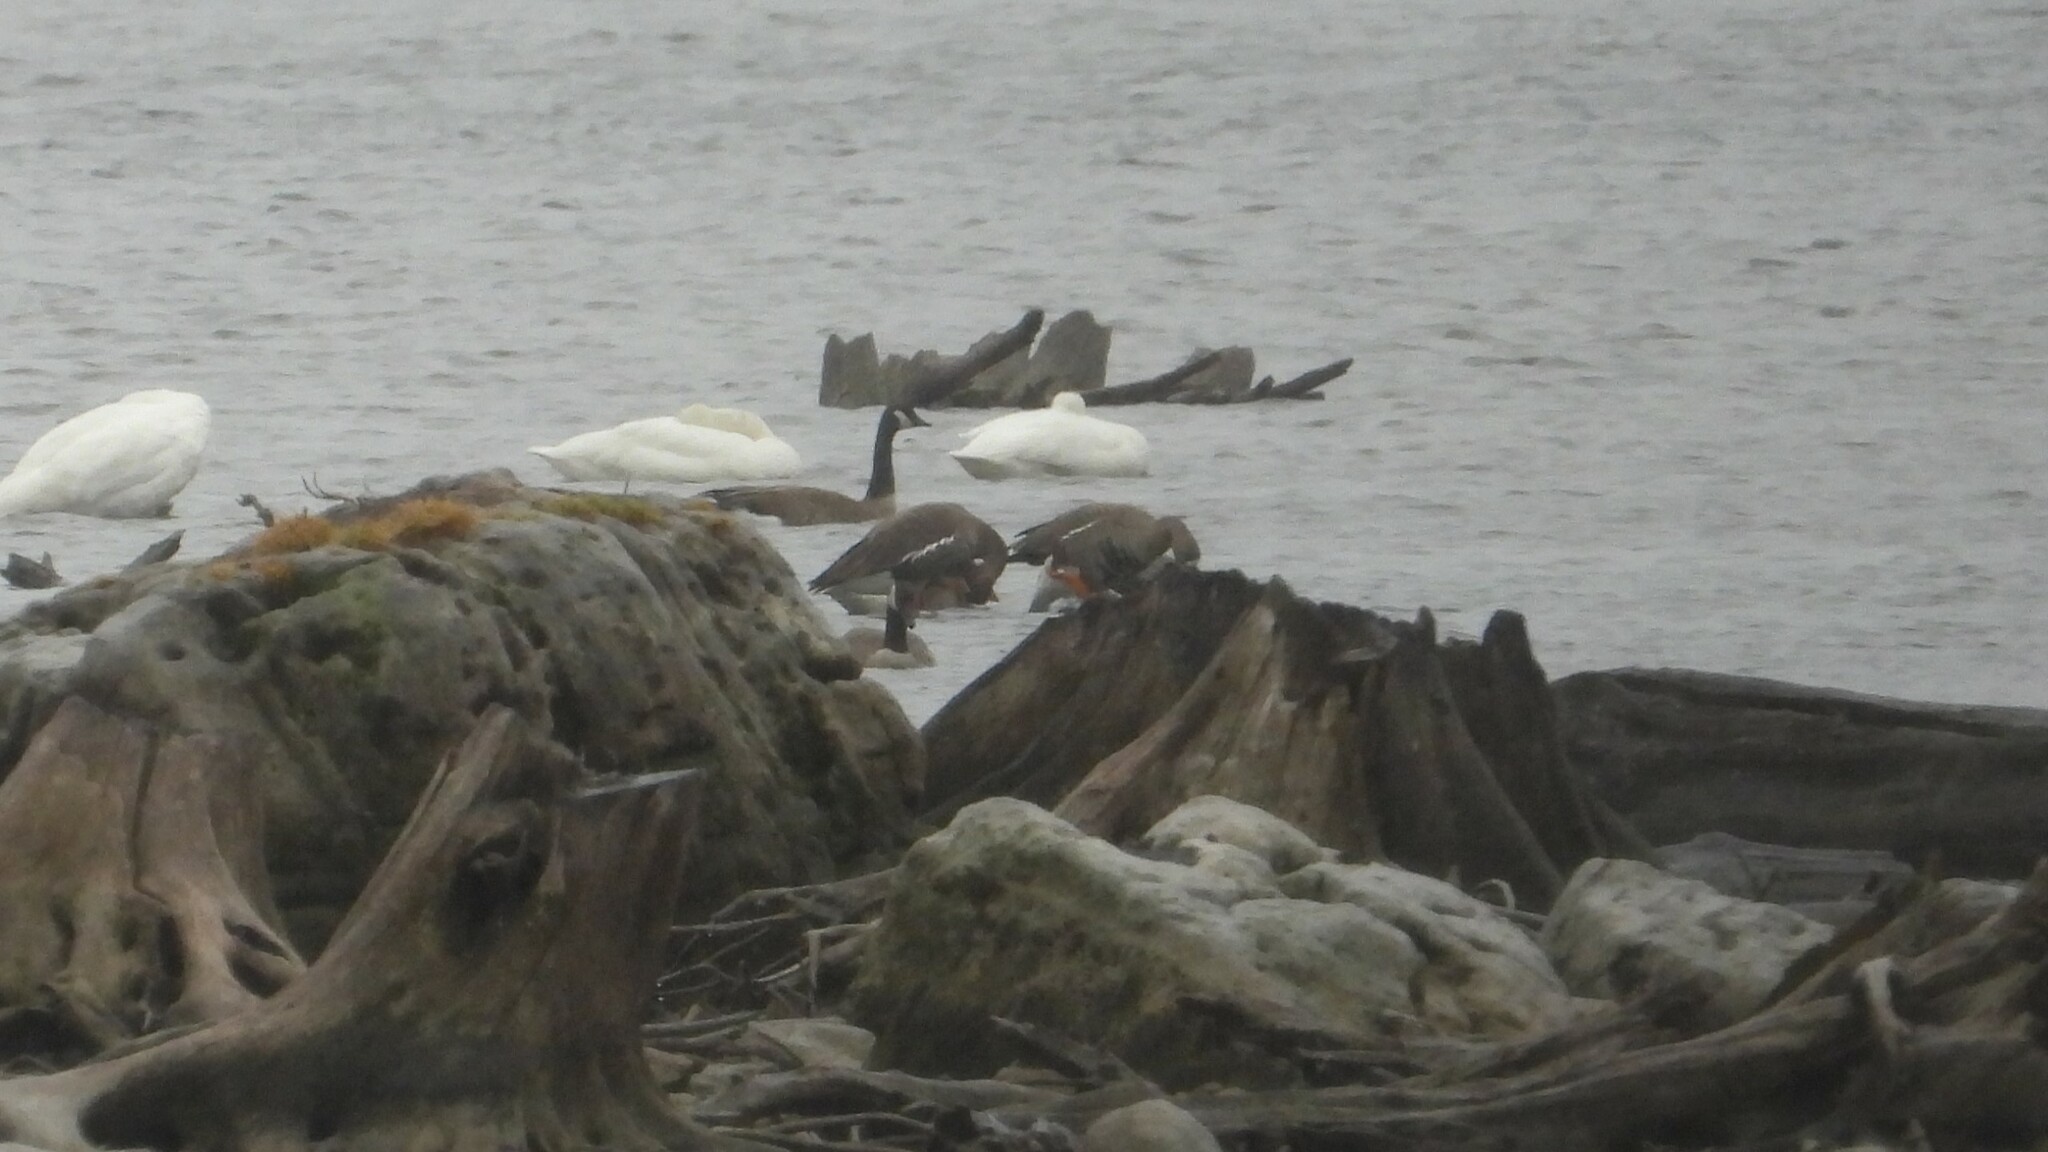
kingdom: Animalia
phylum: Chordata
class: Aves
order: Anseriformes
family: Anatidae
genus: Anser
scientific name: Anser albifrons
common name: Greater white-fronted goose
